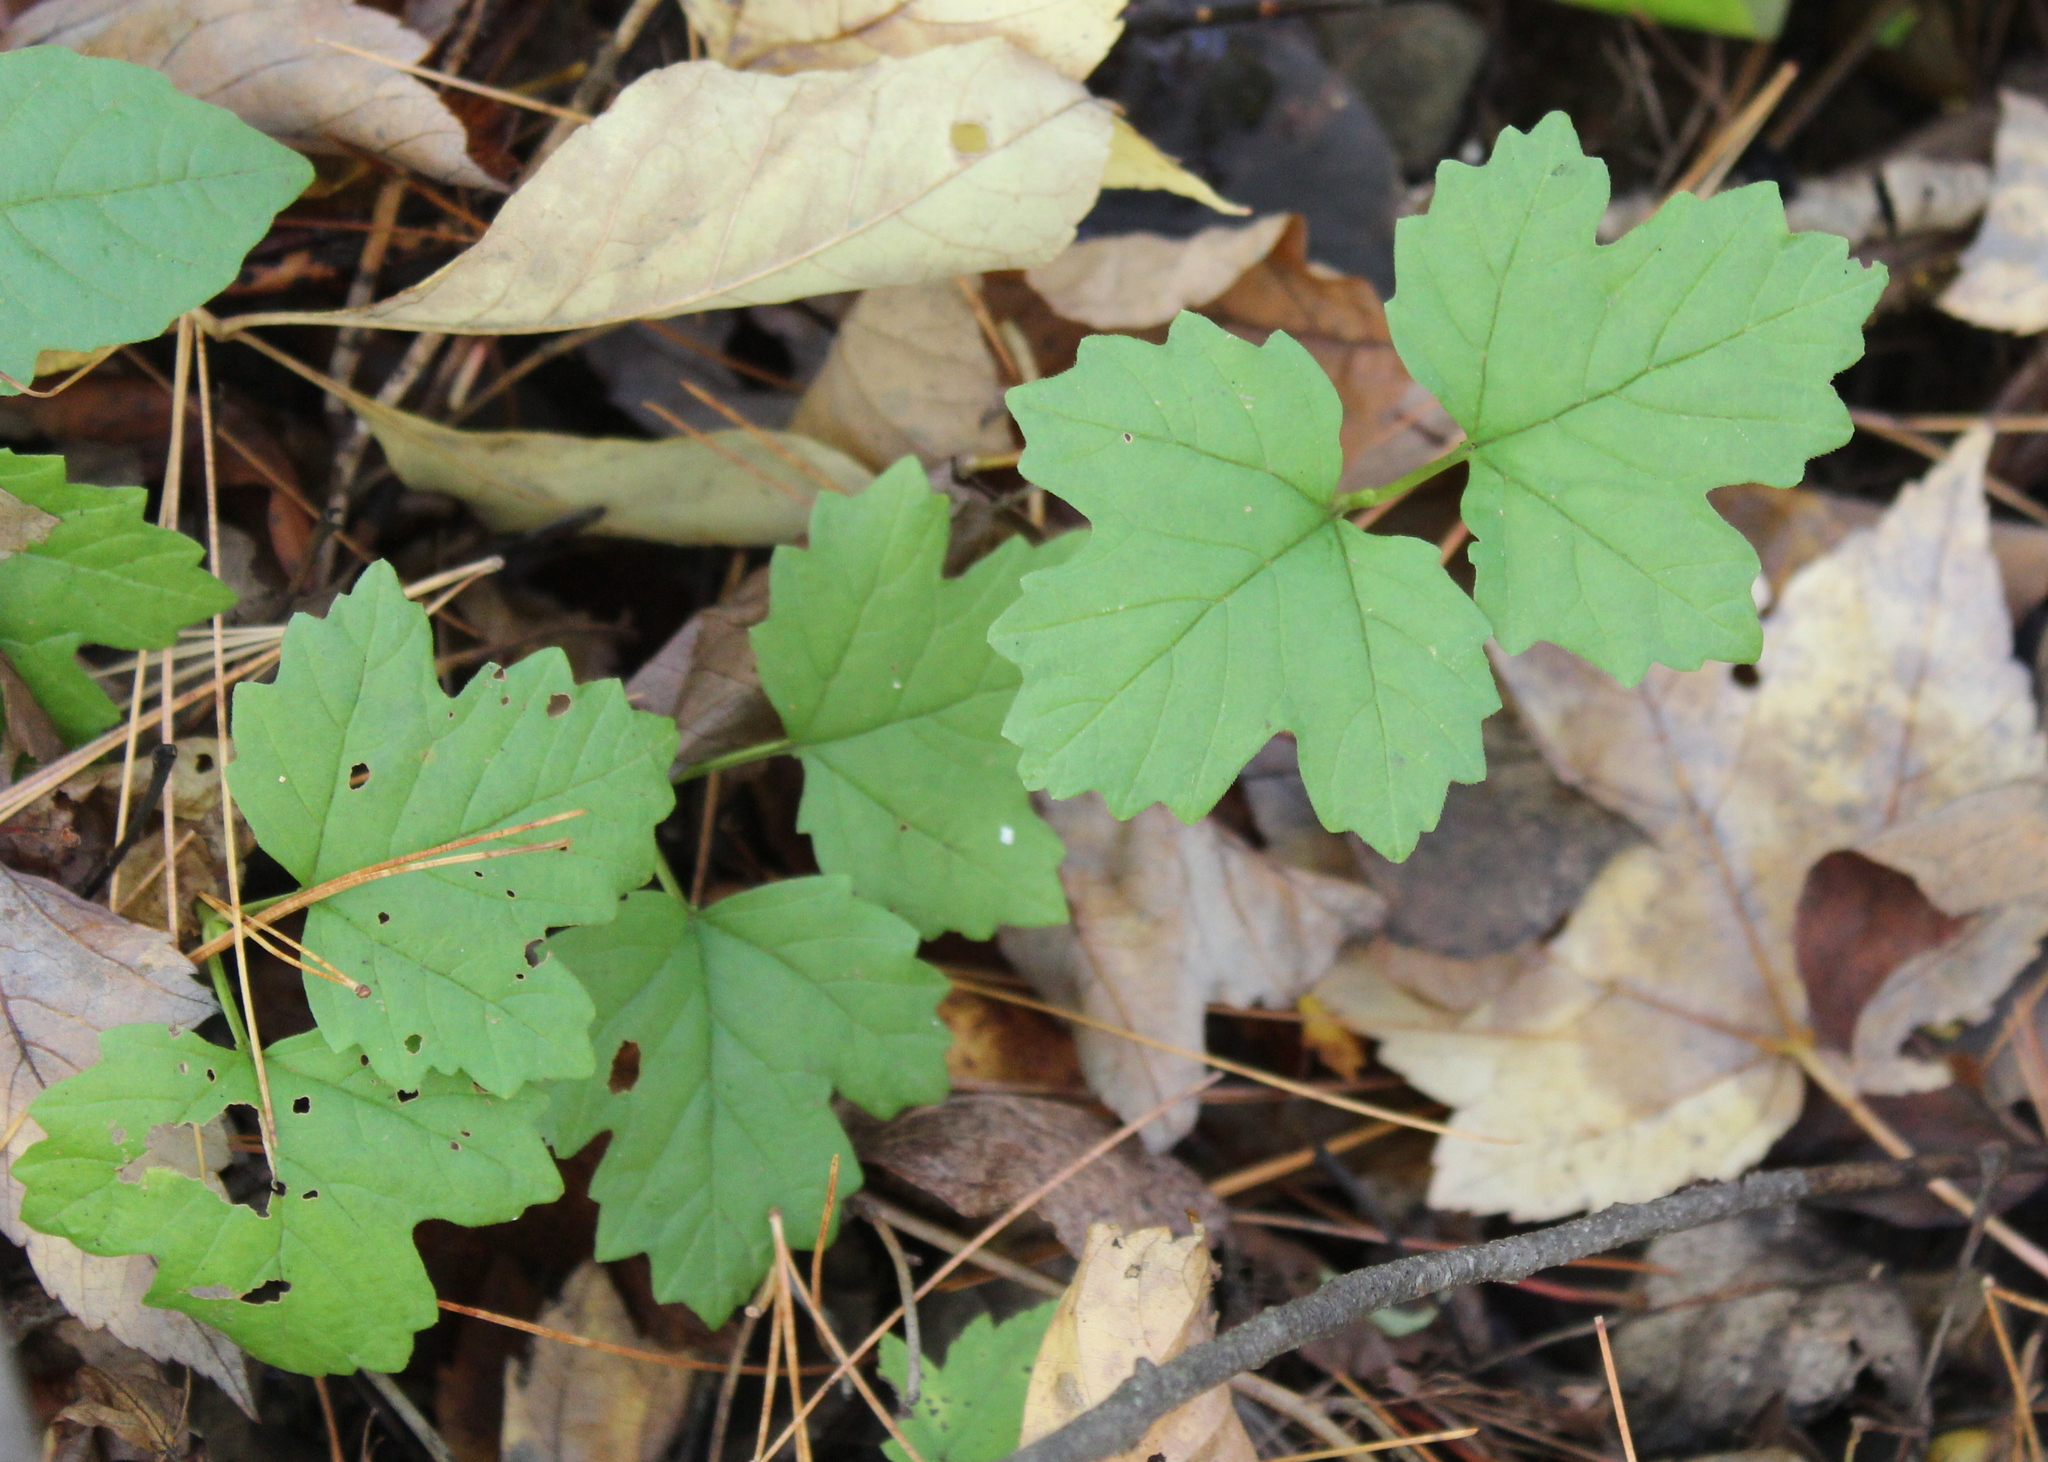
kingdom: Plantae
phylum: Tracheophyta
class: Magnoliopsida
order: Dipsacales
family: Viburnaceae
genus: Viburnum
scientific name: Viburnum acerifolium
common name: Dockmackie
